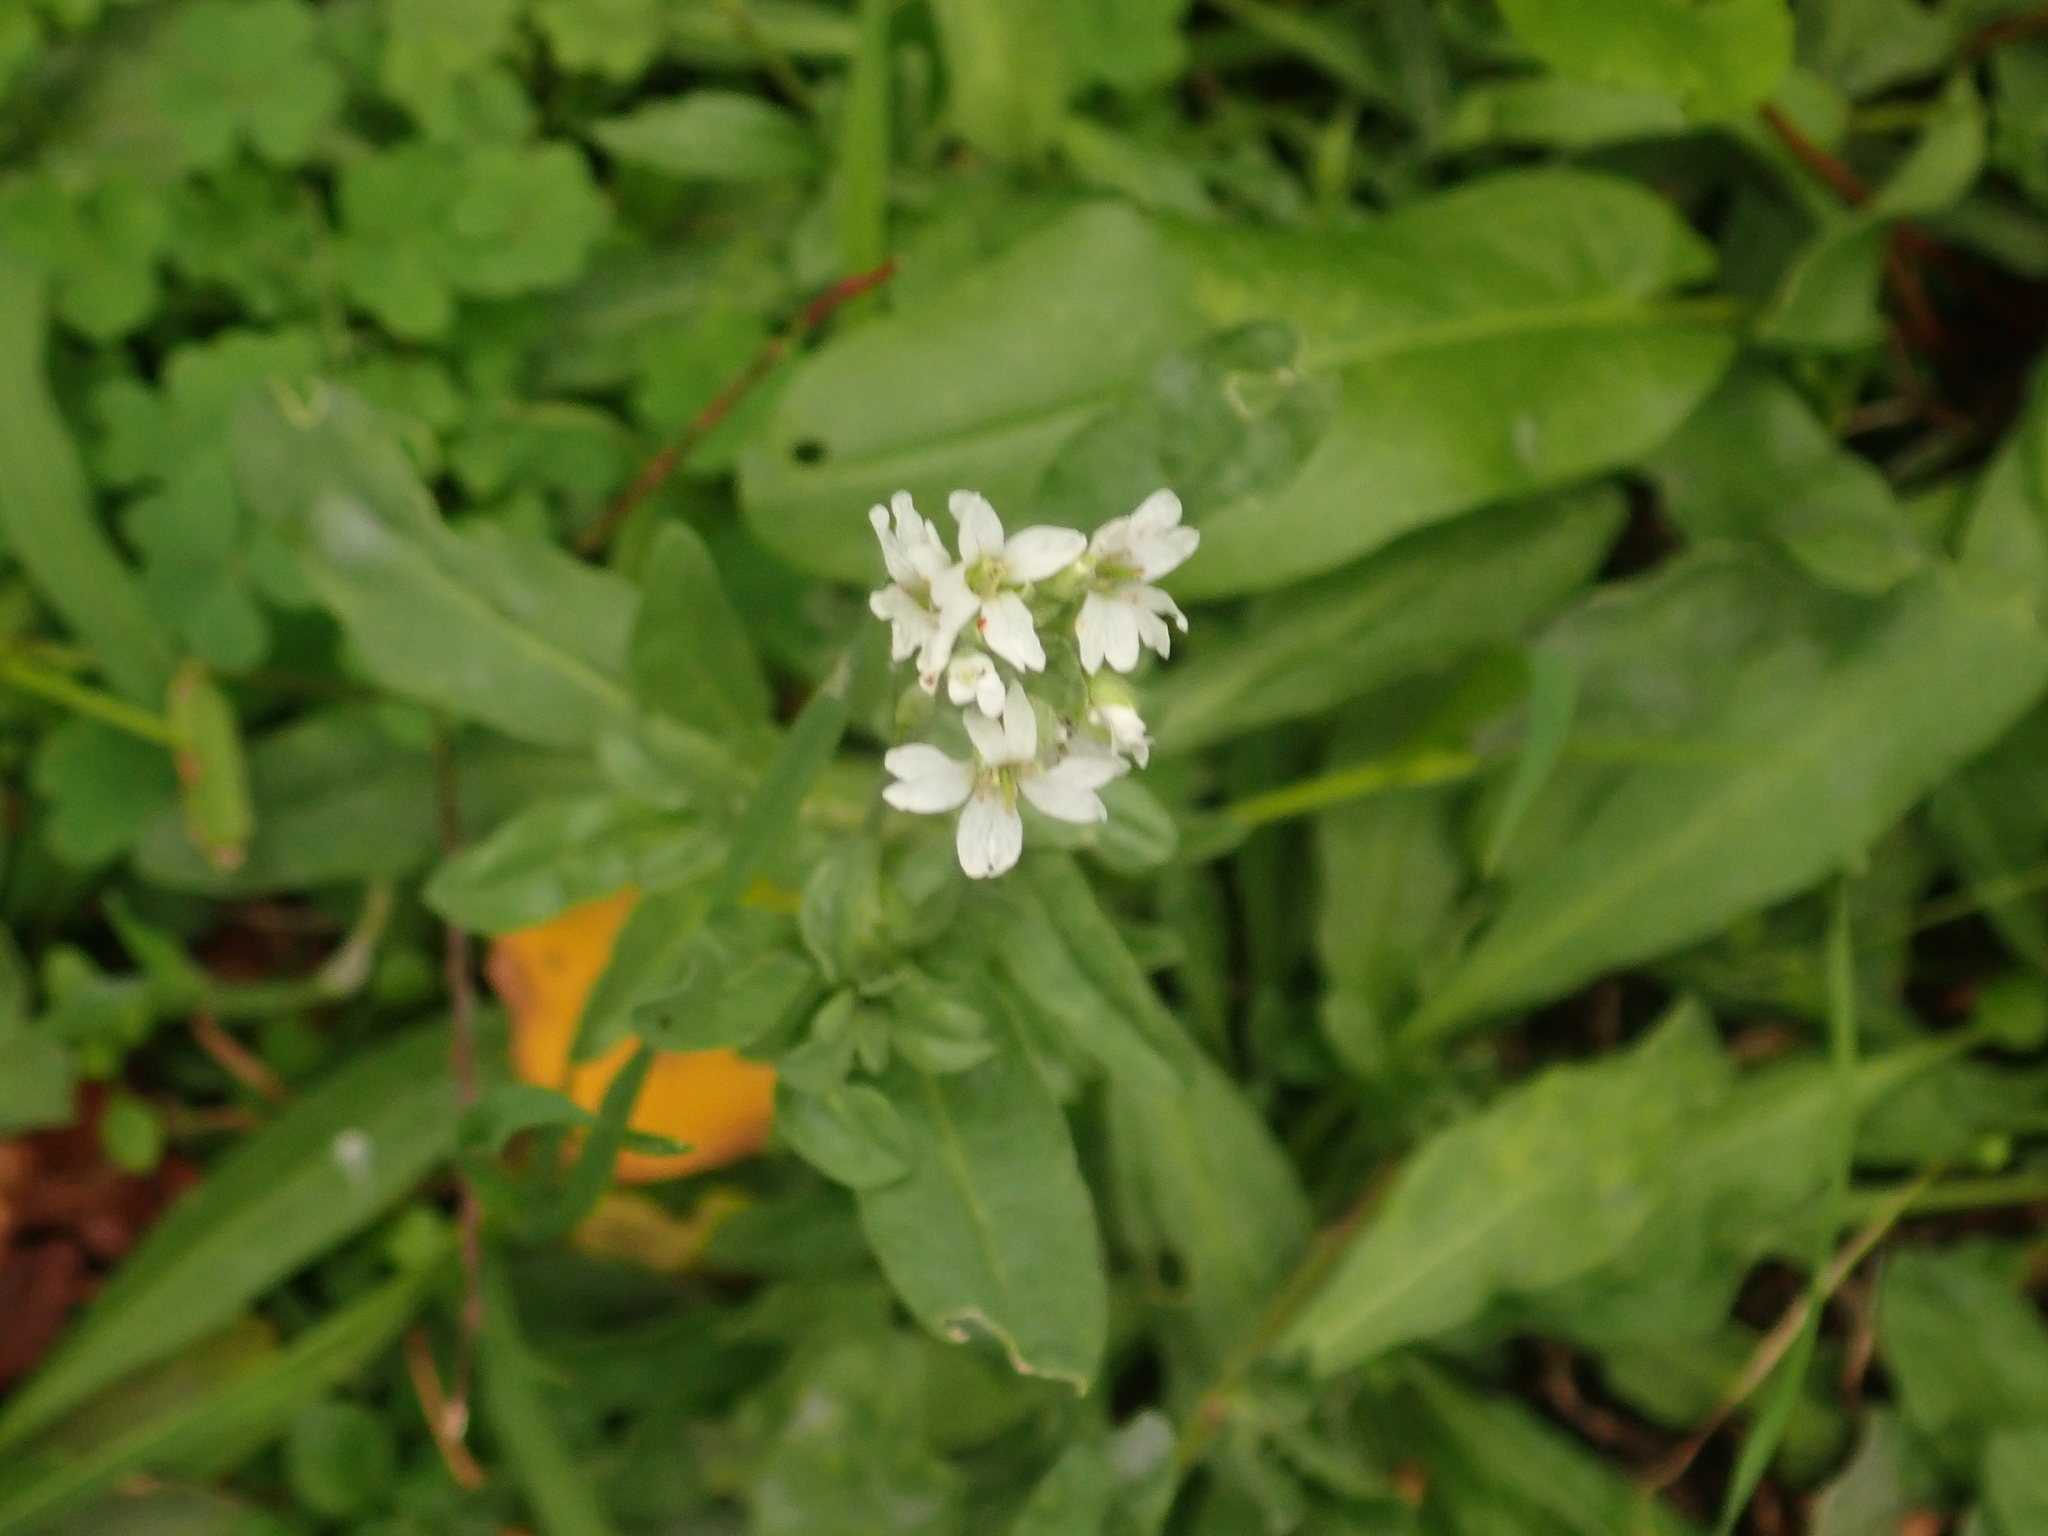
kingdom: Plantae
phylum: Tracheophyta
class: Magnoliopsida
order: Brassicales
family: Brassicaceae
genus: Berteroa
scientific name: Berteroa incana
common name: Hoary alison
